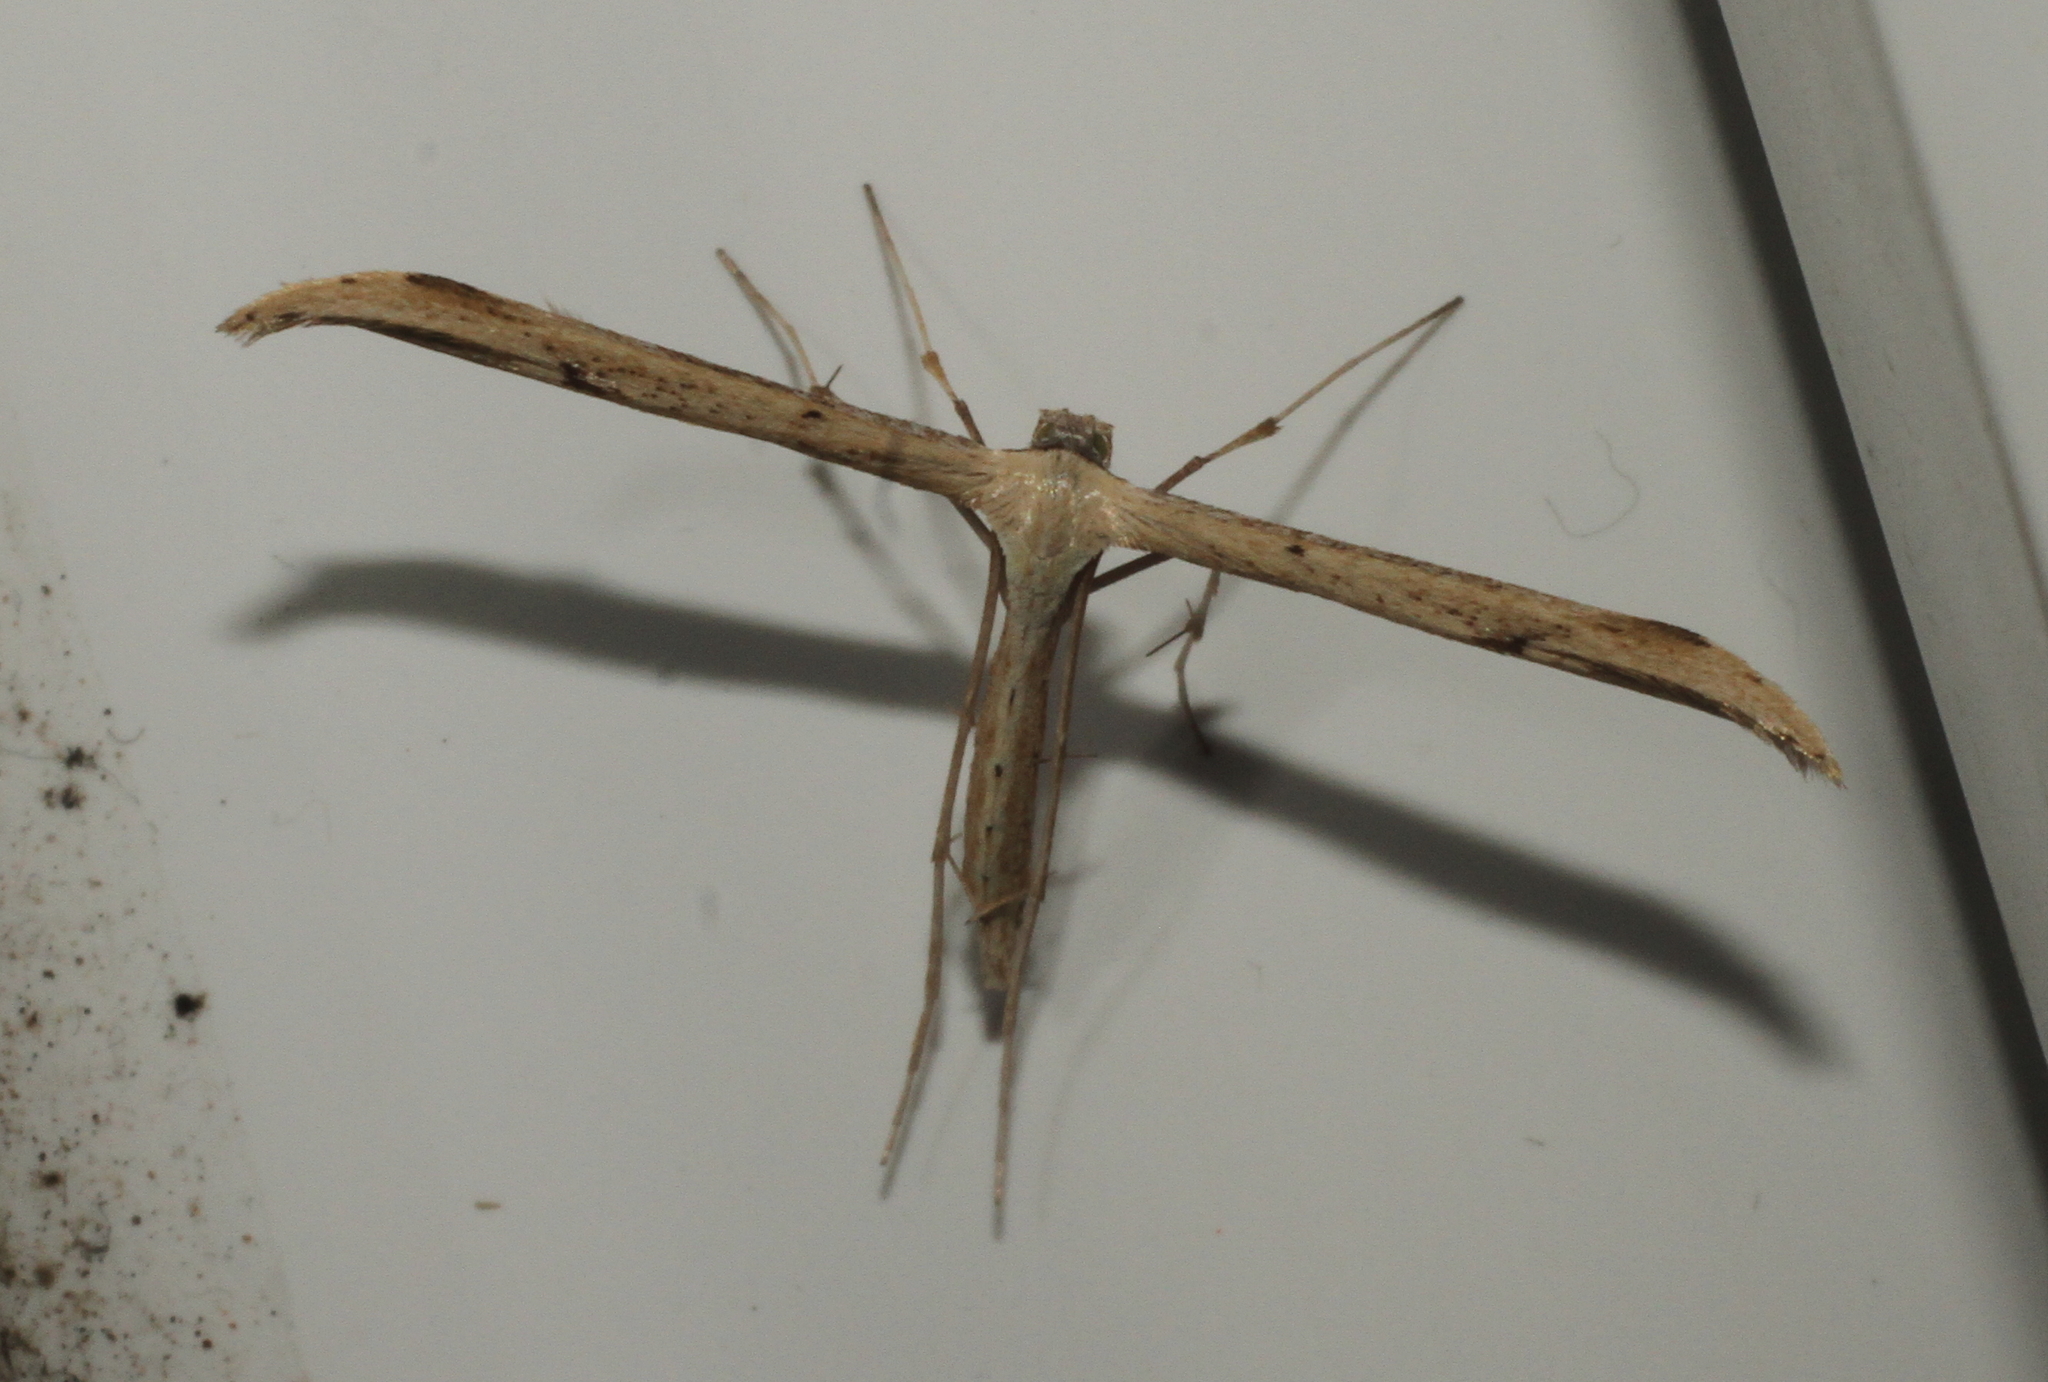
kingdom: Animalia
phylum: Arthropoda
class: Insecta
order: Lepidoptera
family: Pterophoridae
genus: Emmelina
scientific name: Emmelina monodactyla
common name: Common plume
